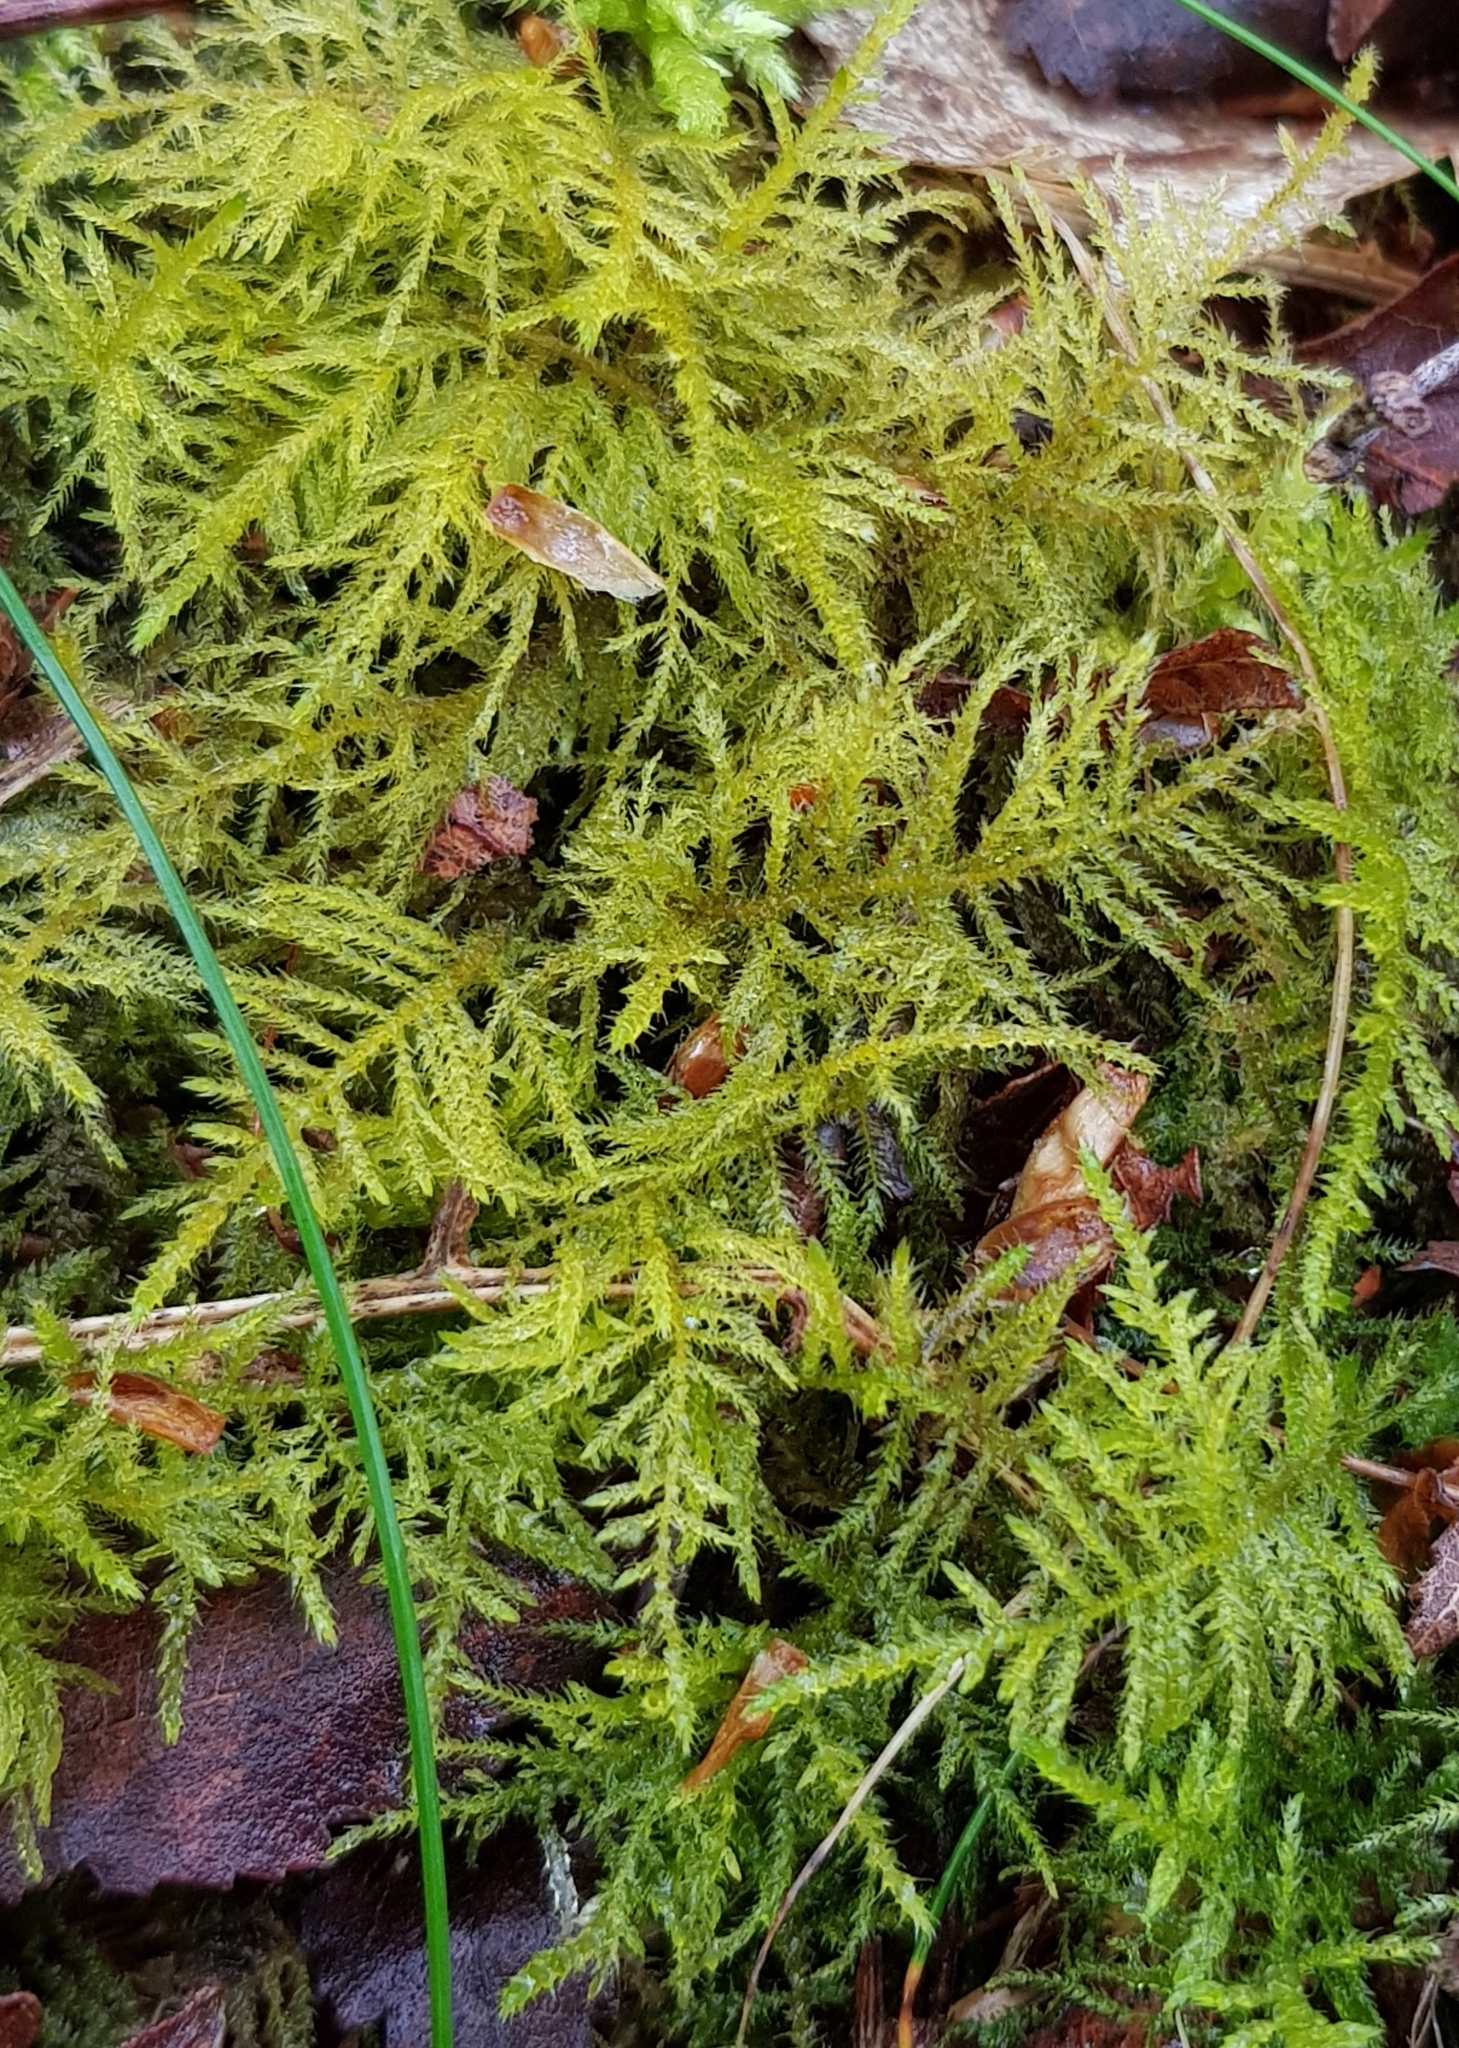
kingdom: Plantae
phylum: Bryophyta
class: Bryopsida
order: Hypnales
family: Brachytheciaceae
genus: Kindbergia
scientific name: Kindbergia praelonga
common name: Slender beaked moss
